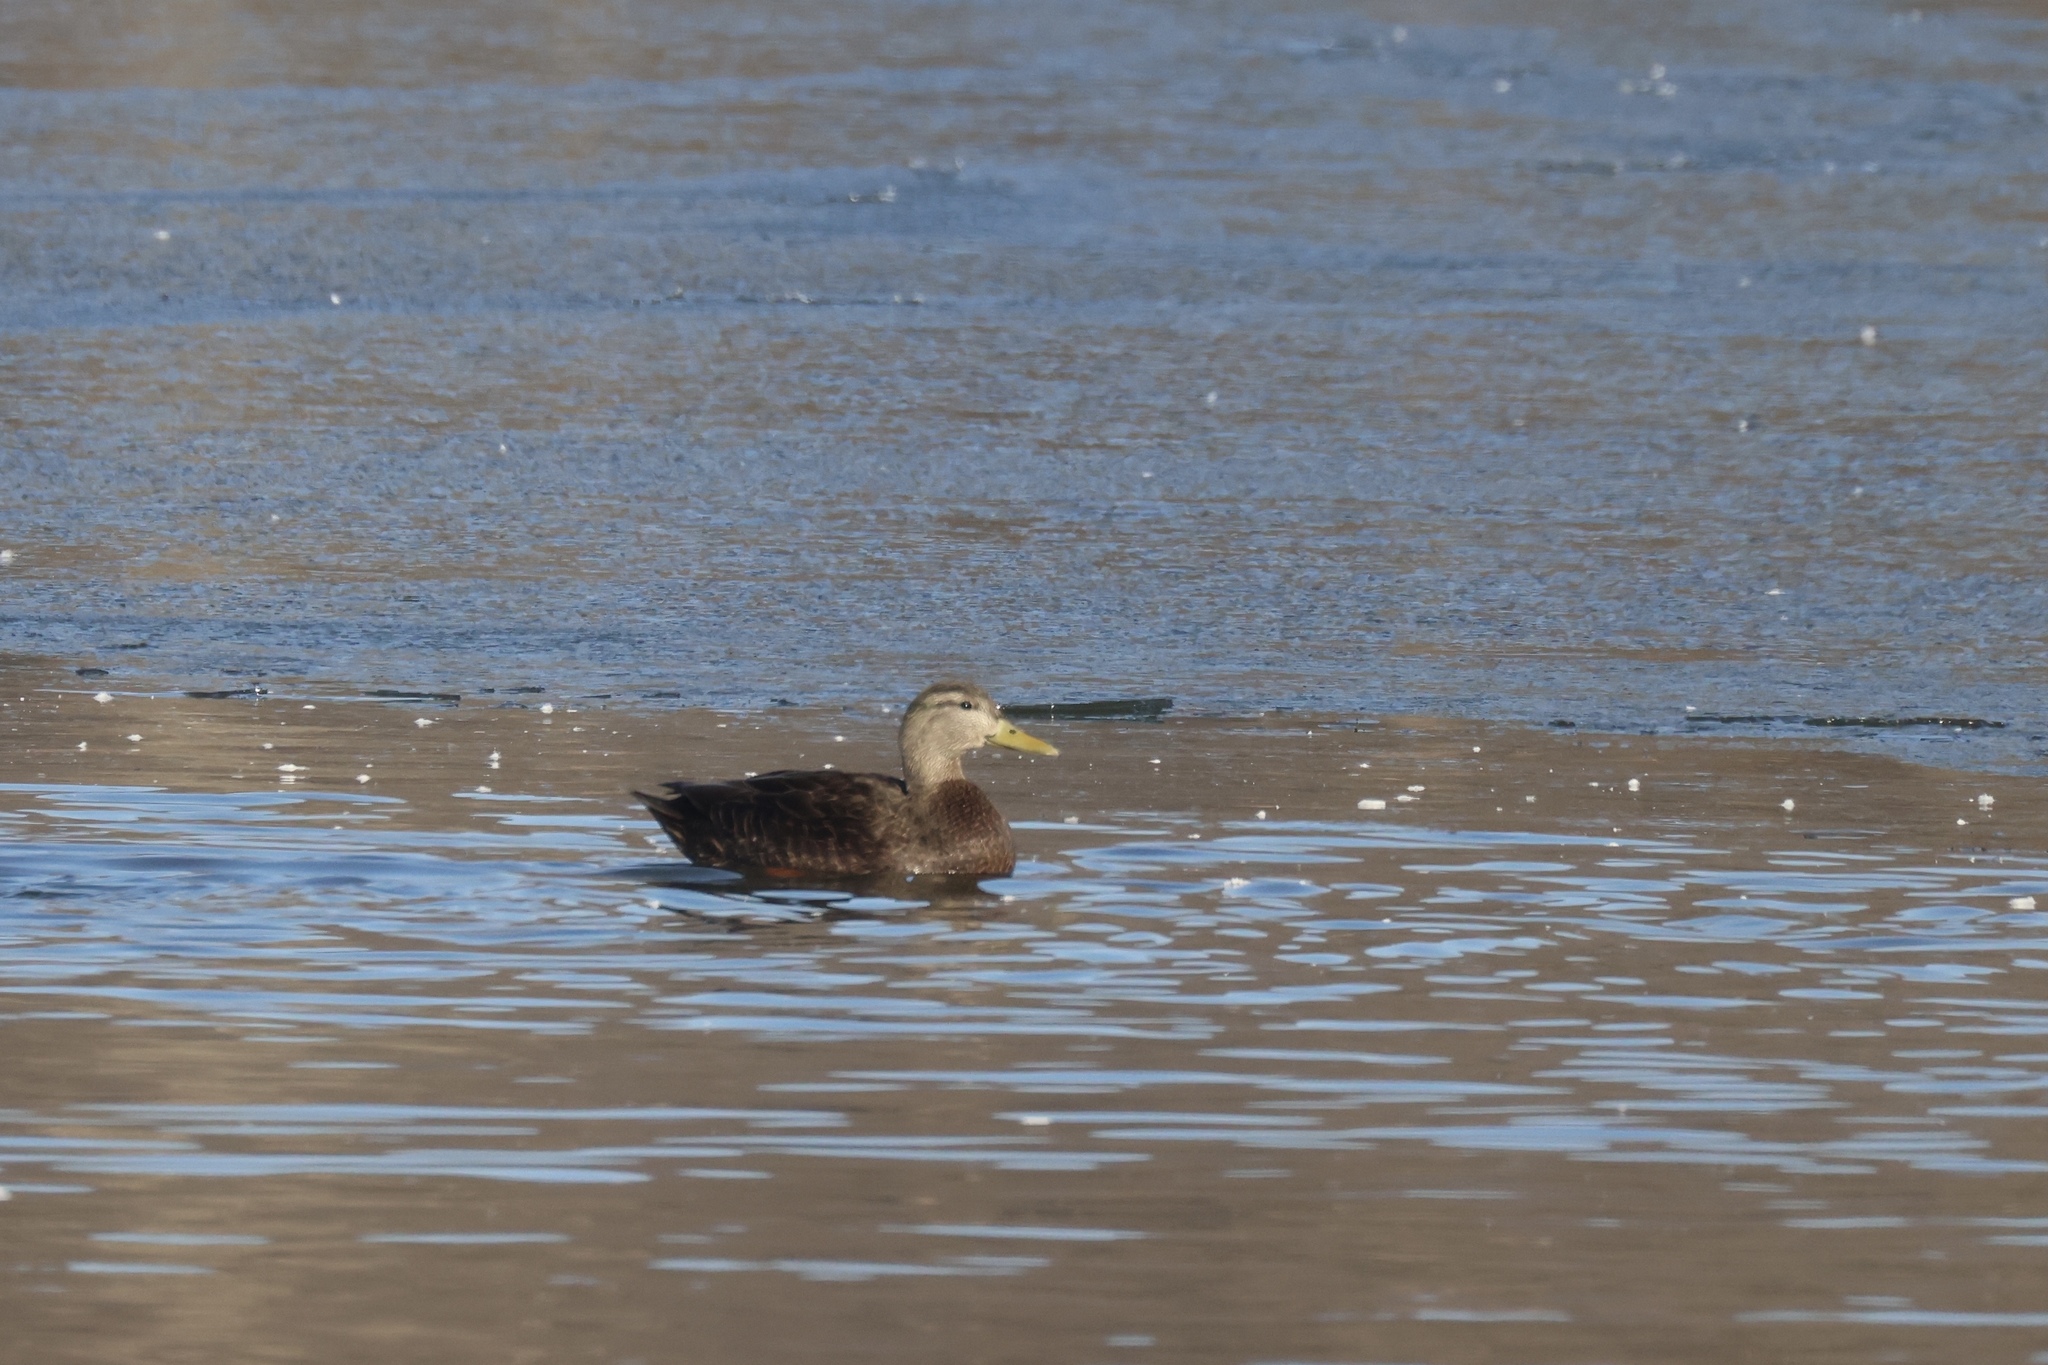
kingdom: Animalia
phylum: Chordata
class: Aves
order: Anseriformes
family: Anatidae
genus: Anas
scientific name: Anas rubripes
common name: American black duck
